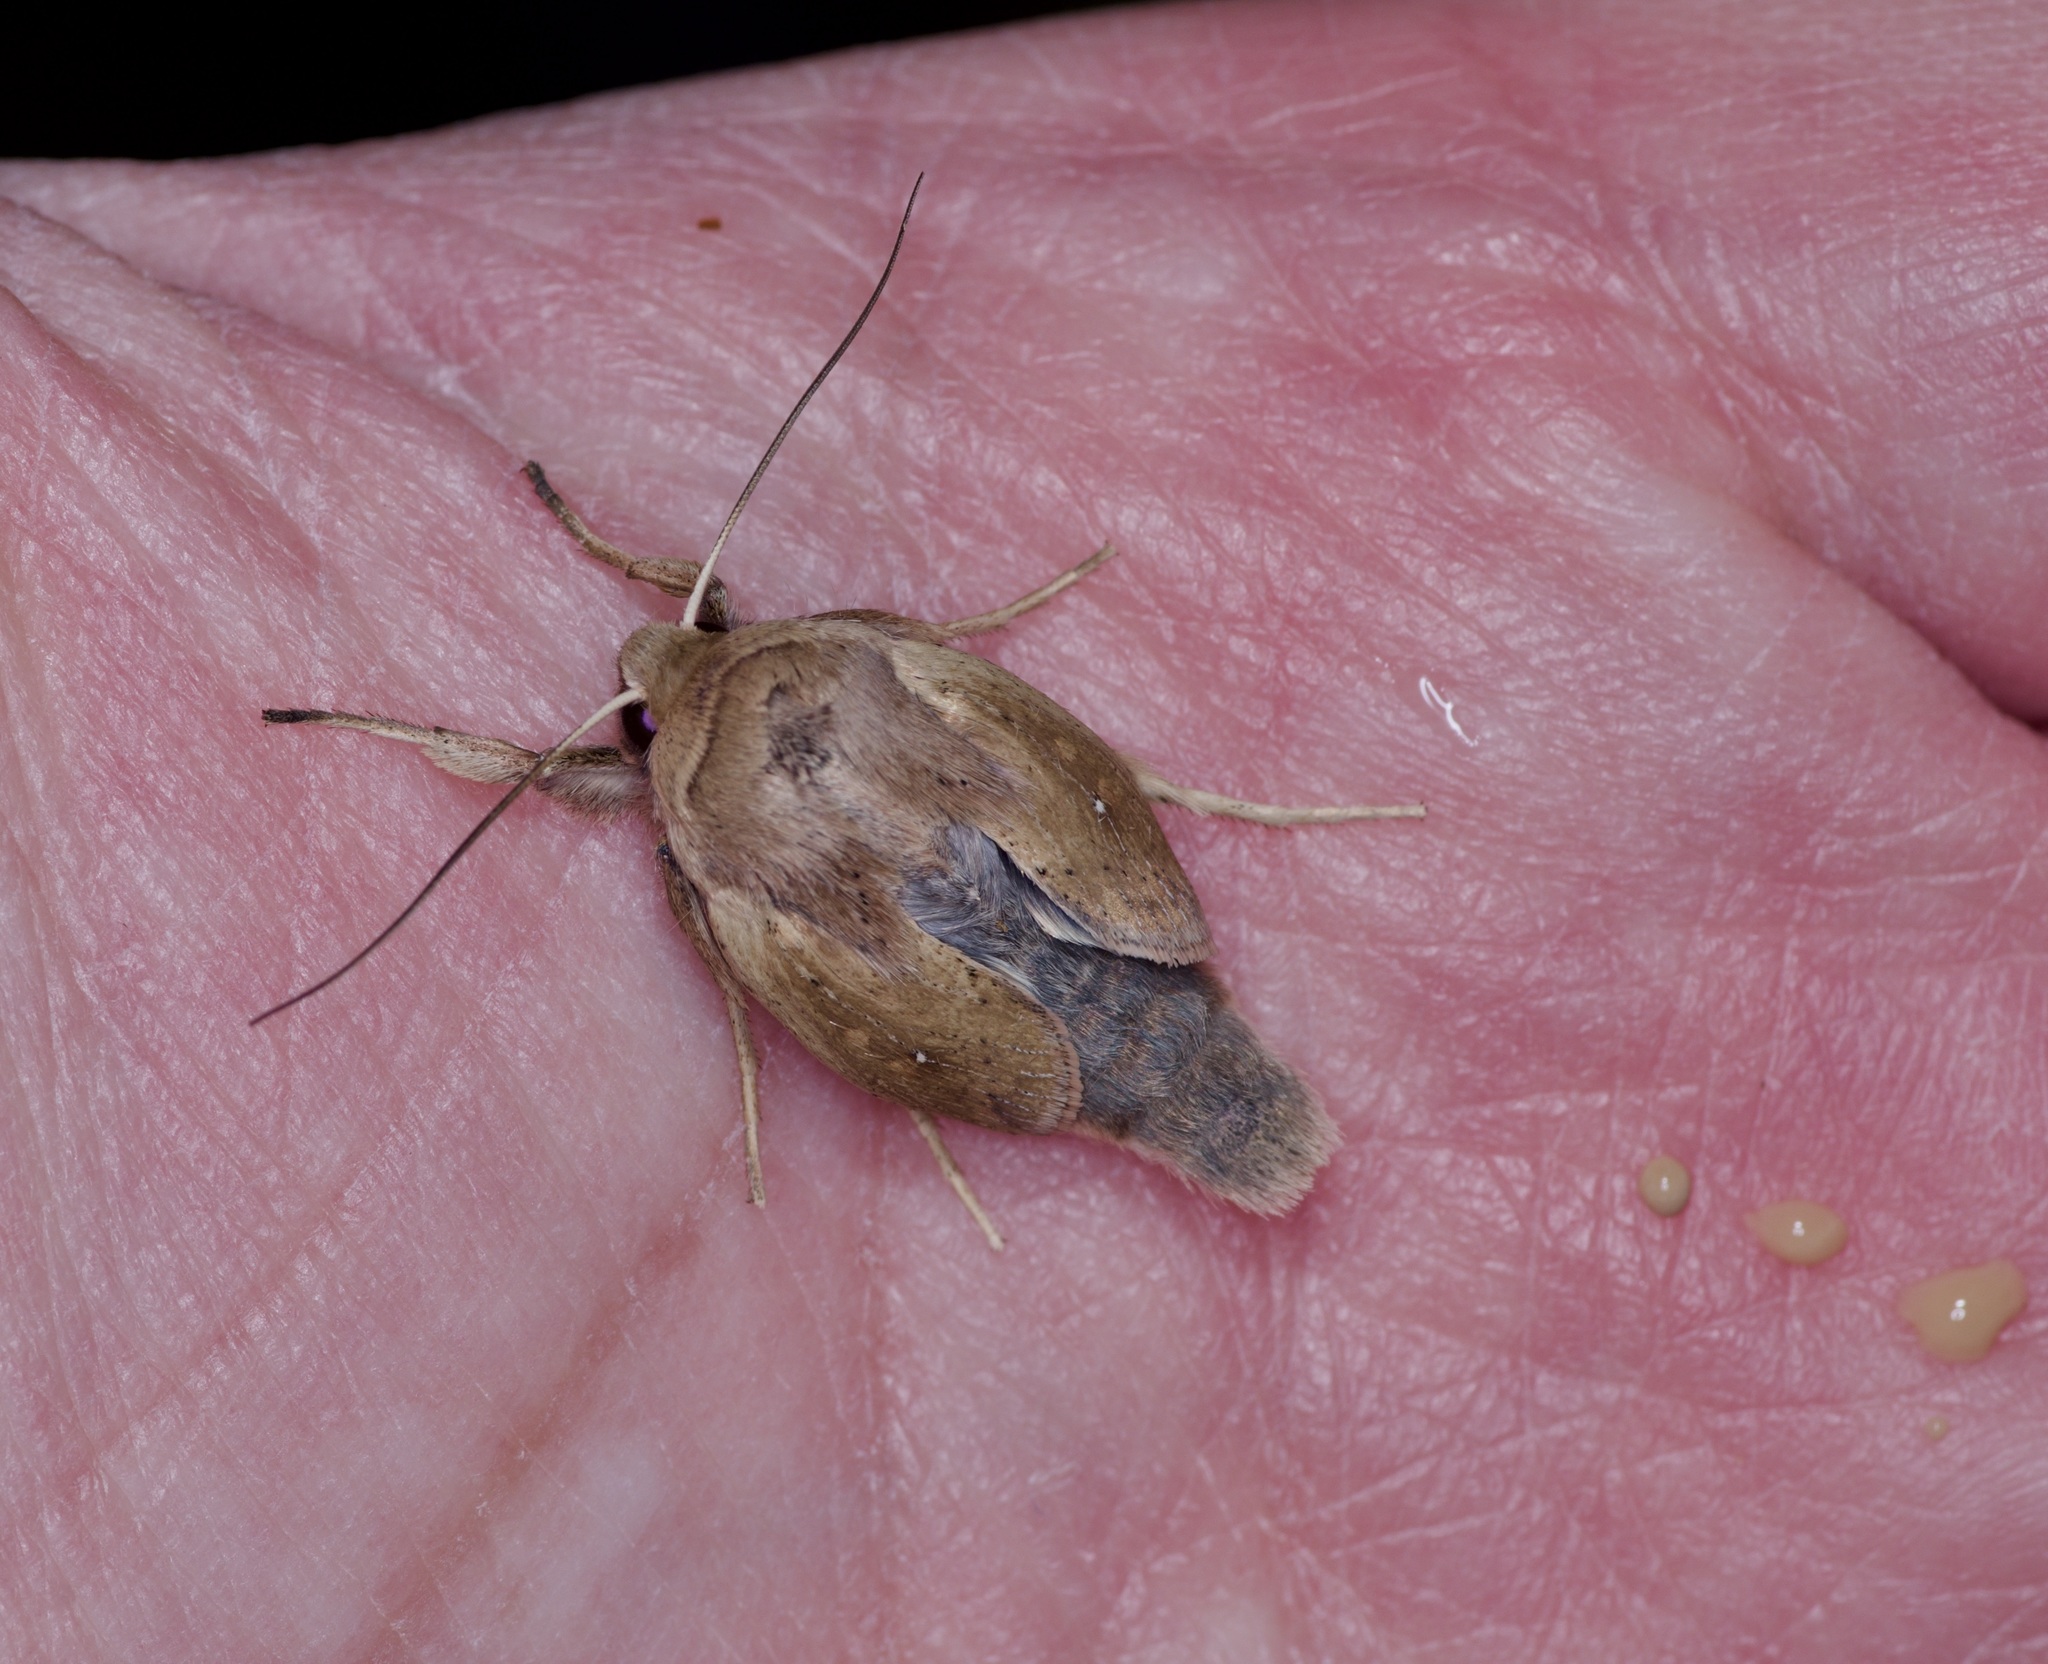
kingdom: Animalia
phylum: Arthropoda
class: Insecta
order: Lepidoptera
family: Noctuidae
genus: Mythimna
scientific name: Mythimna unipuncta
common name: White-speck
